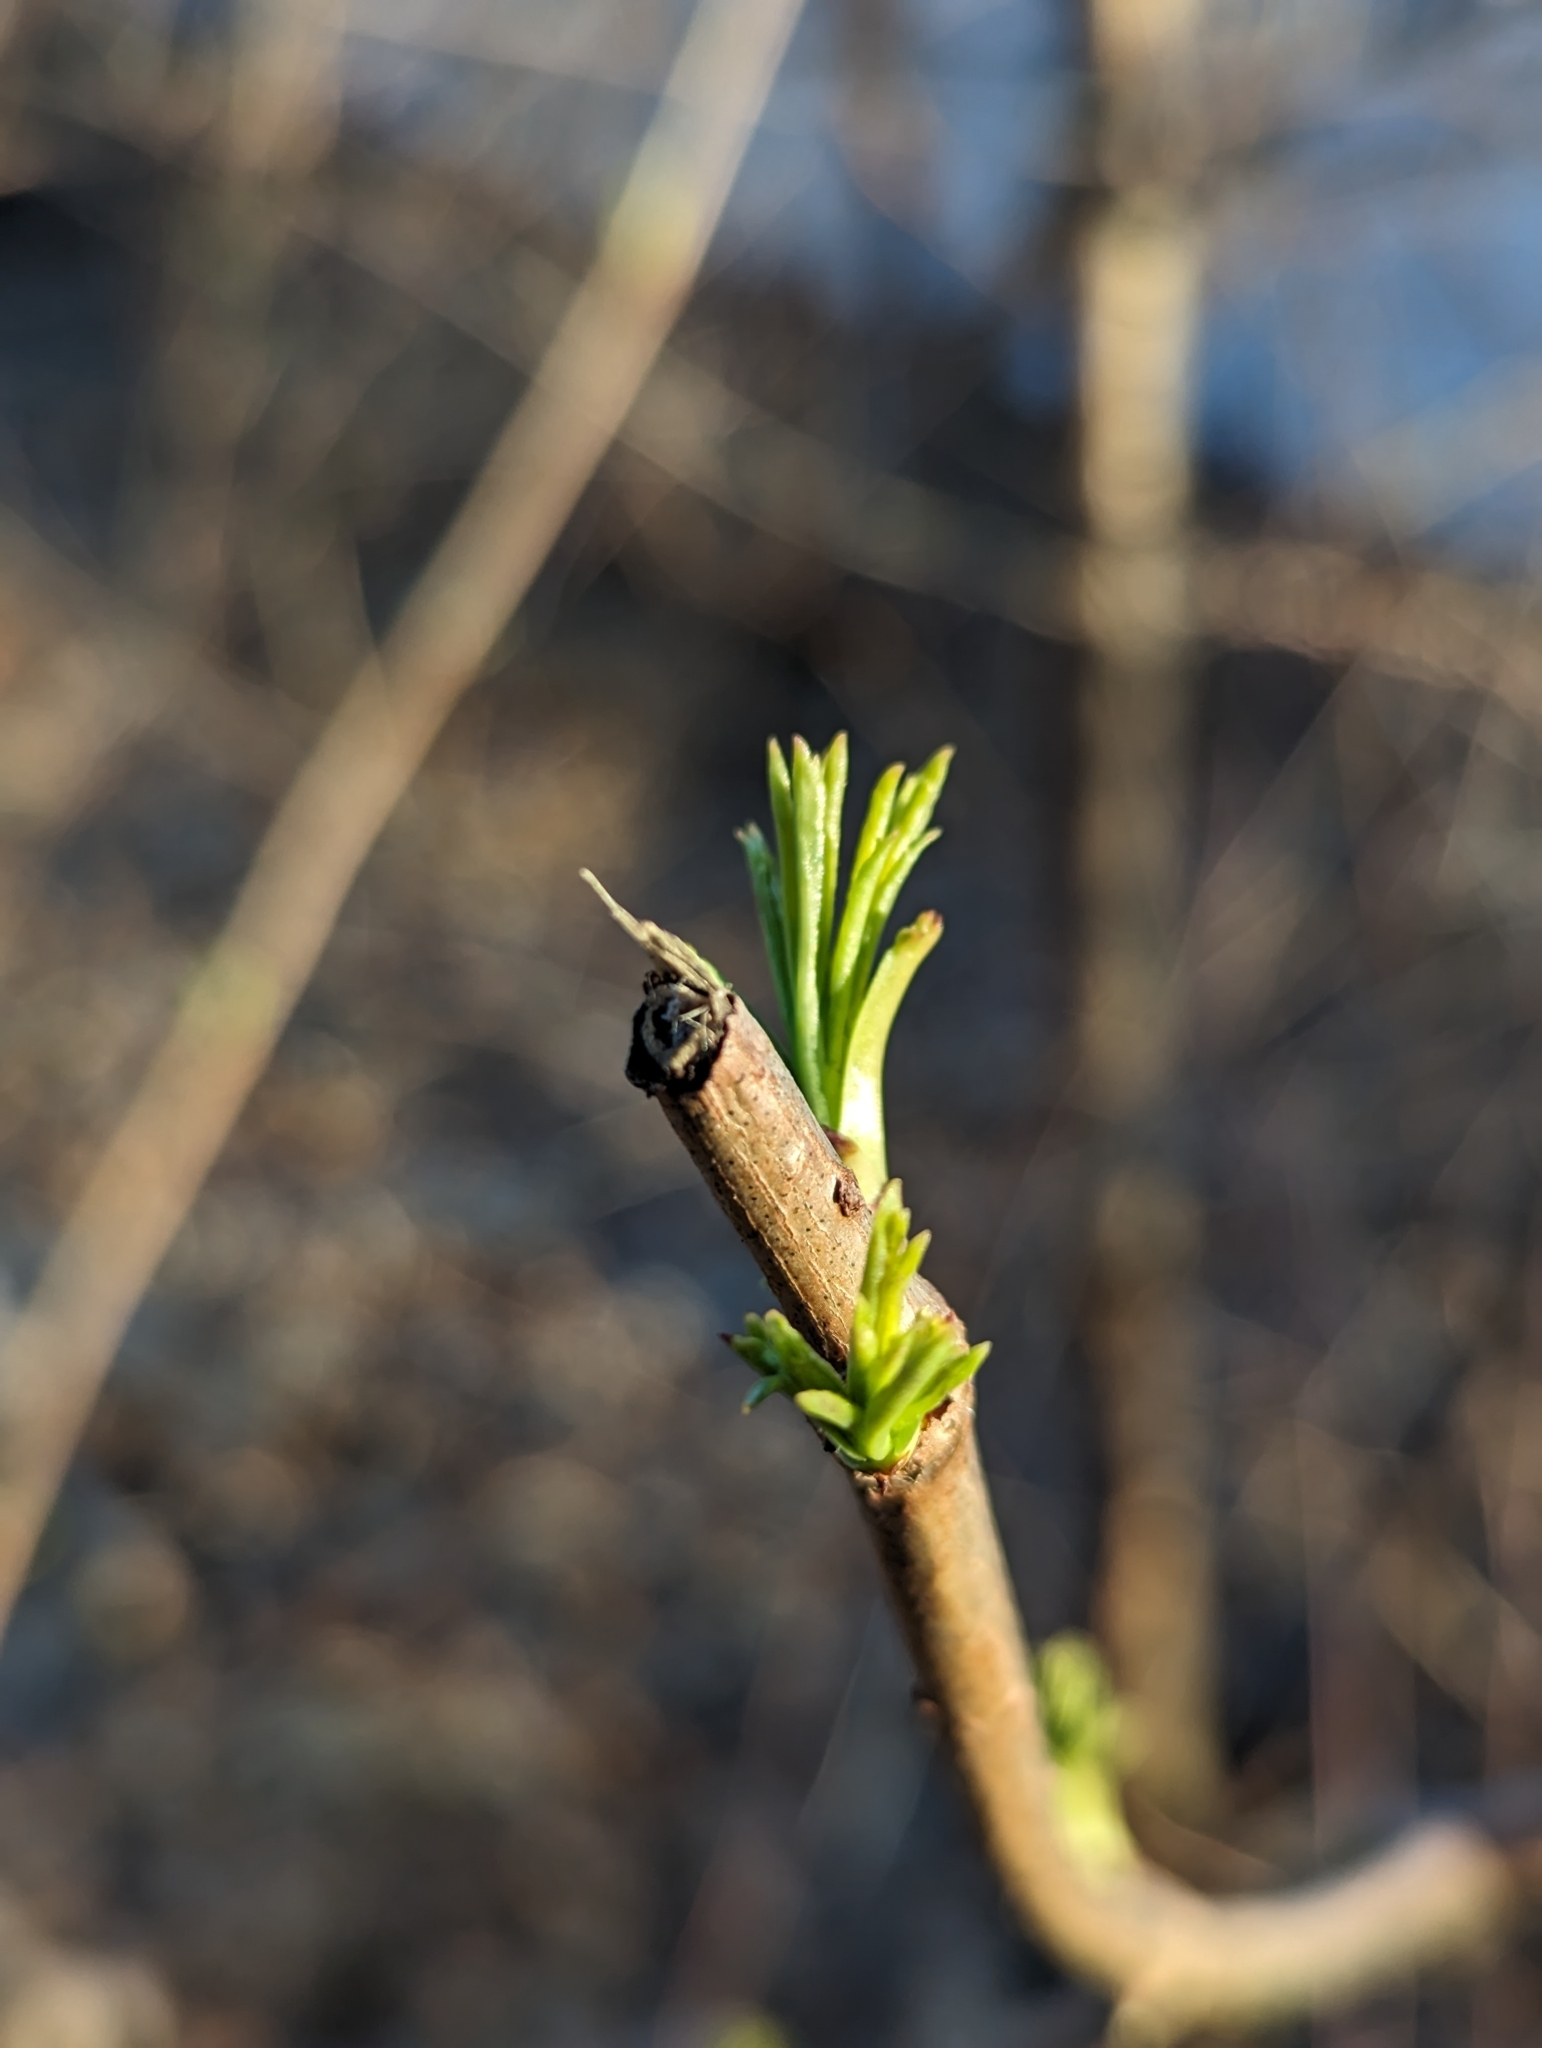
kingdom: Plantae
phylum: Tracheophyta
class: Magnoliopsida
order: Dipsacales
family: Viburnaceae
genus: Sambucus
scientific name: Sambucus canadensis
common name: American elder
